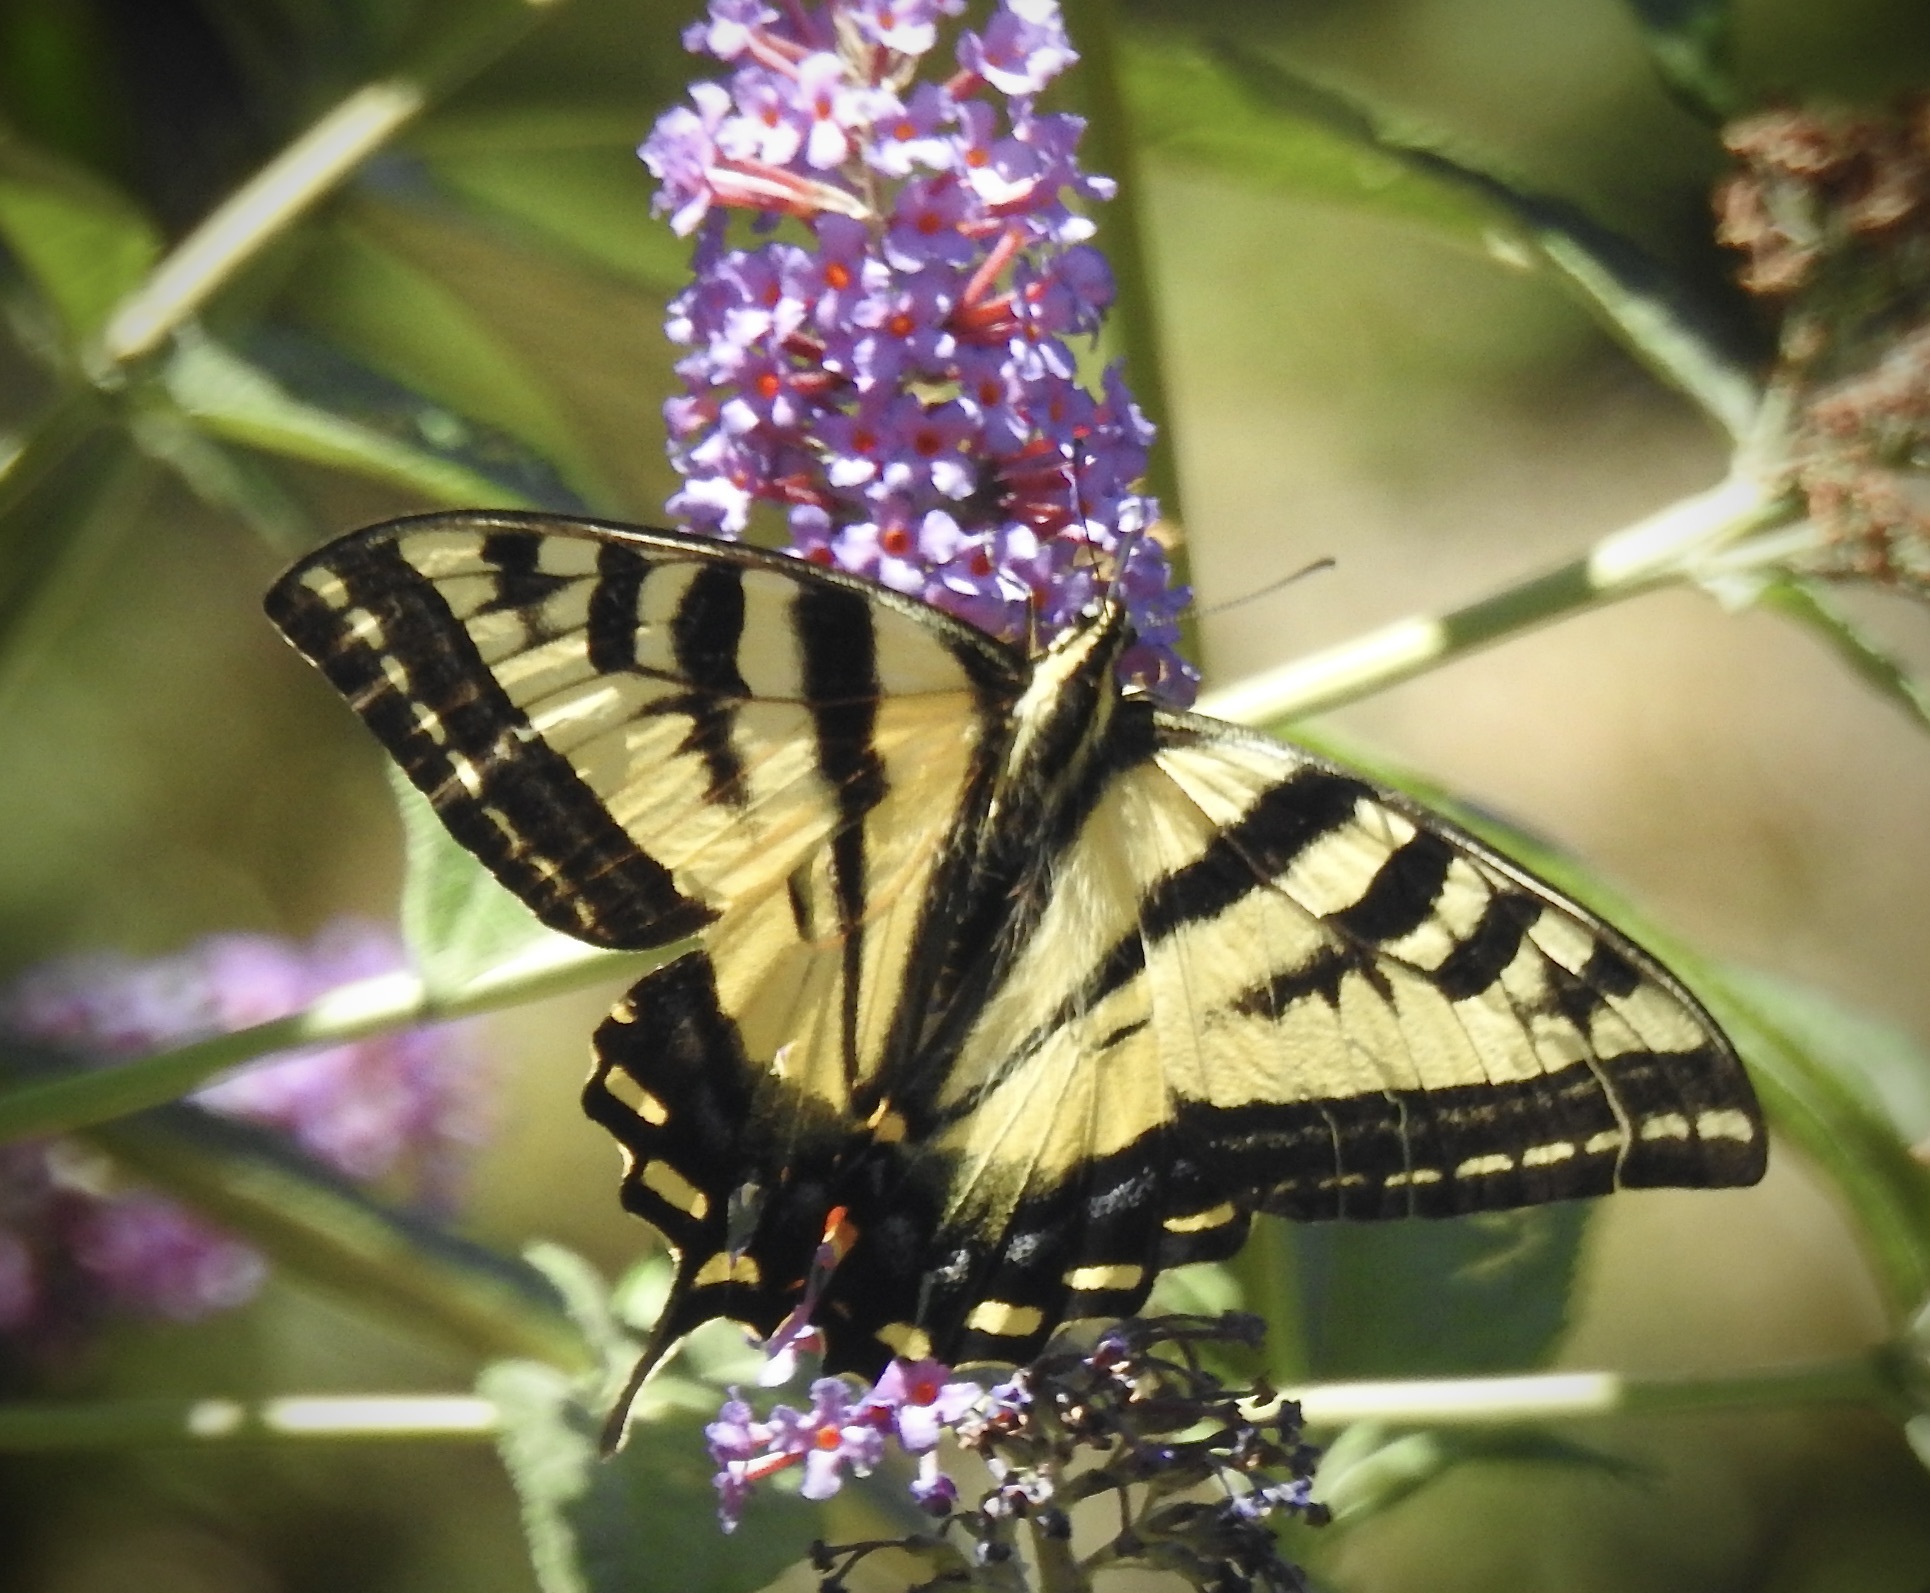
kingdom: Animalia
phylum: Arthropoda
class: Insecta
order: Lepidoptera
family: Papilionidae
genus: Papilio
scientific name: Papilio rutulus
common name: Western tiger swallowtail
